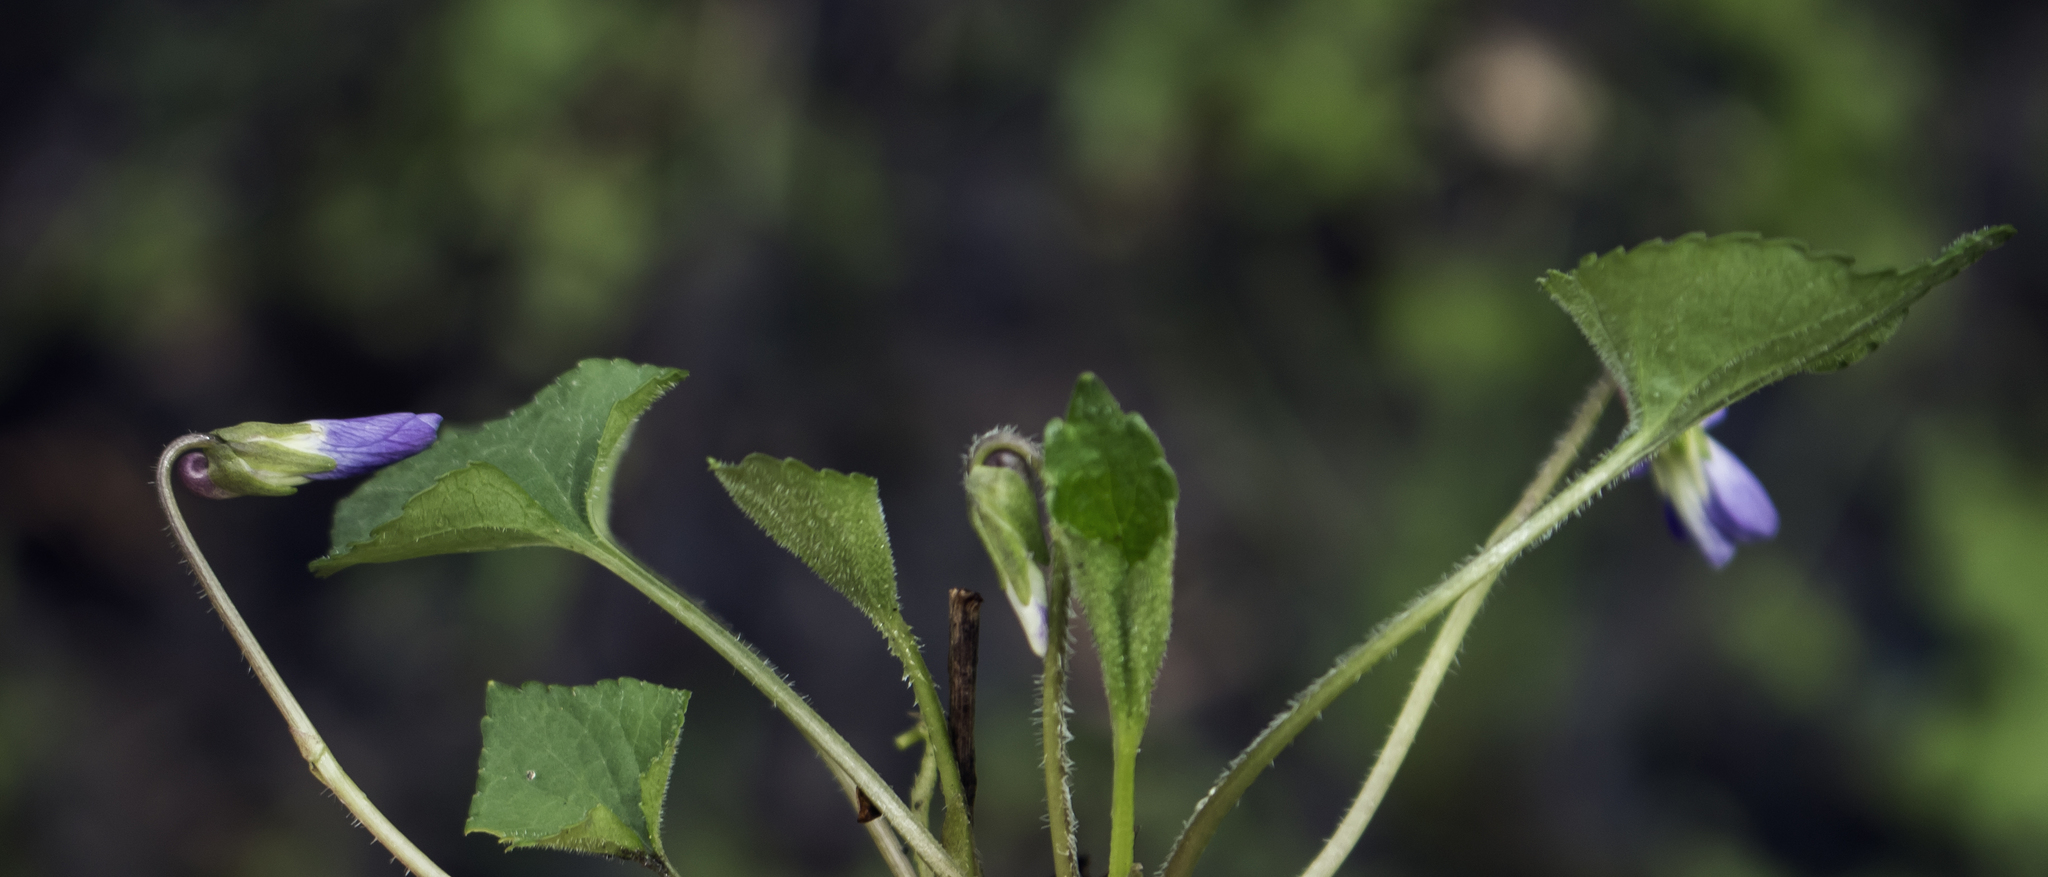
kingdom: Plantae
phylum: Tracheophyta
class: Magnoliopsida
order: Malpighiales
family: Violaceae
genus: Viola
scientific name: Viola sororia
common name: Dooryard violet
